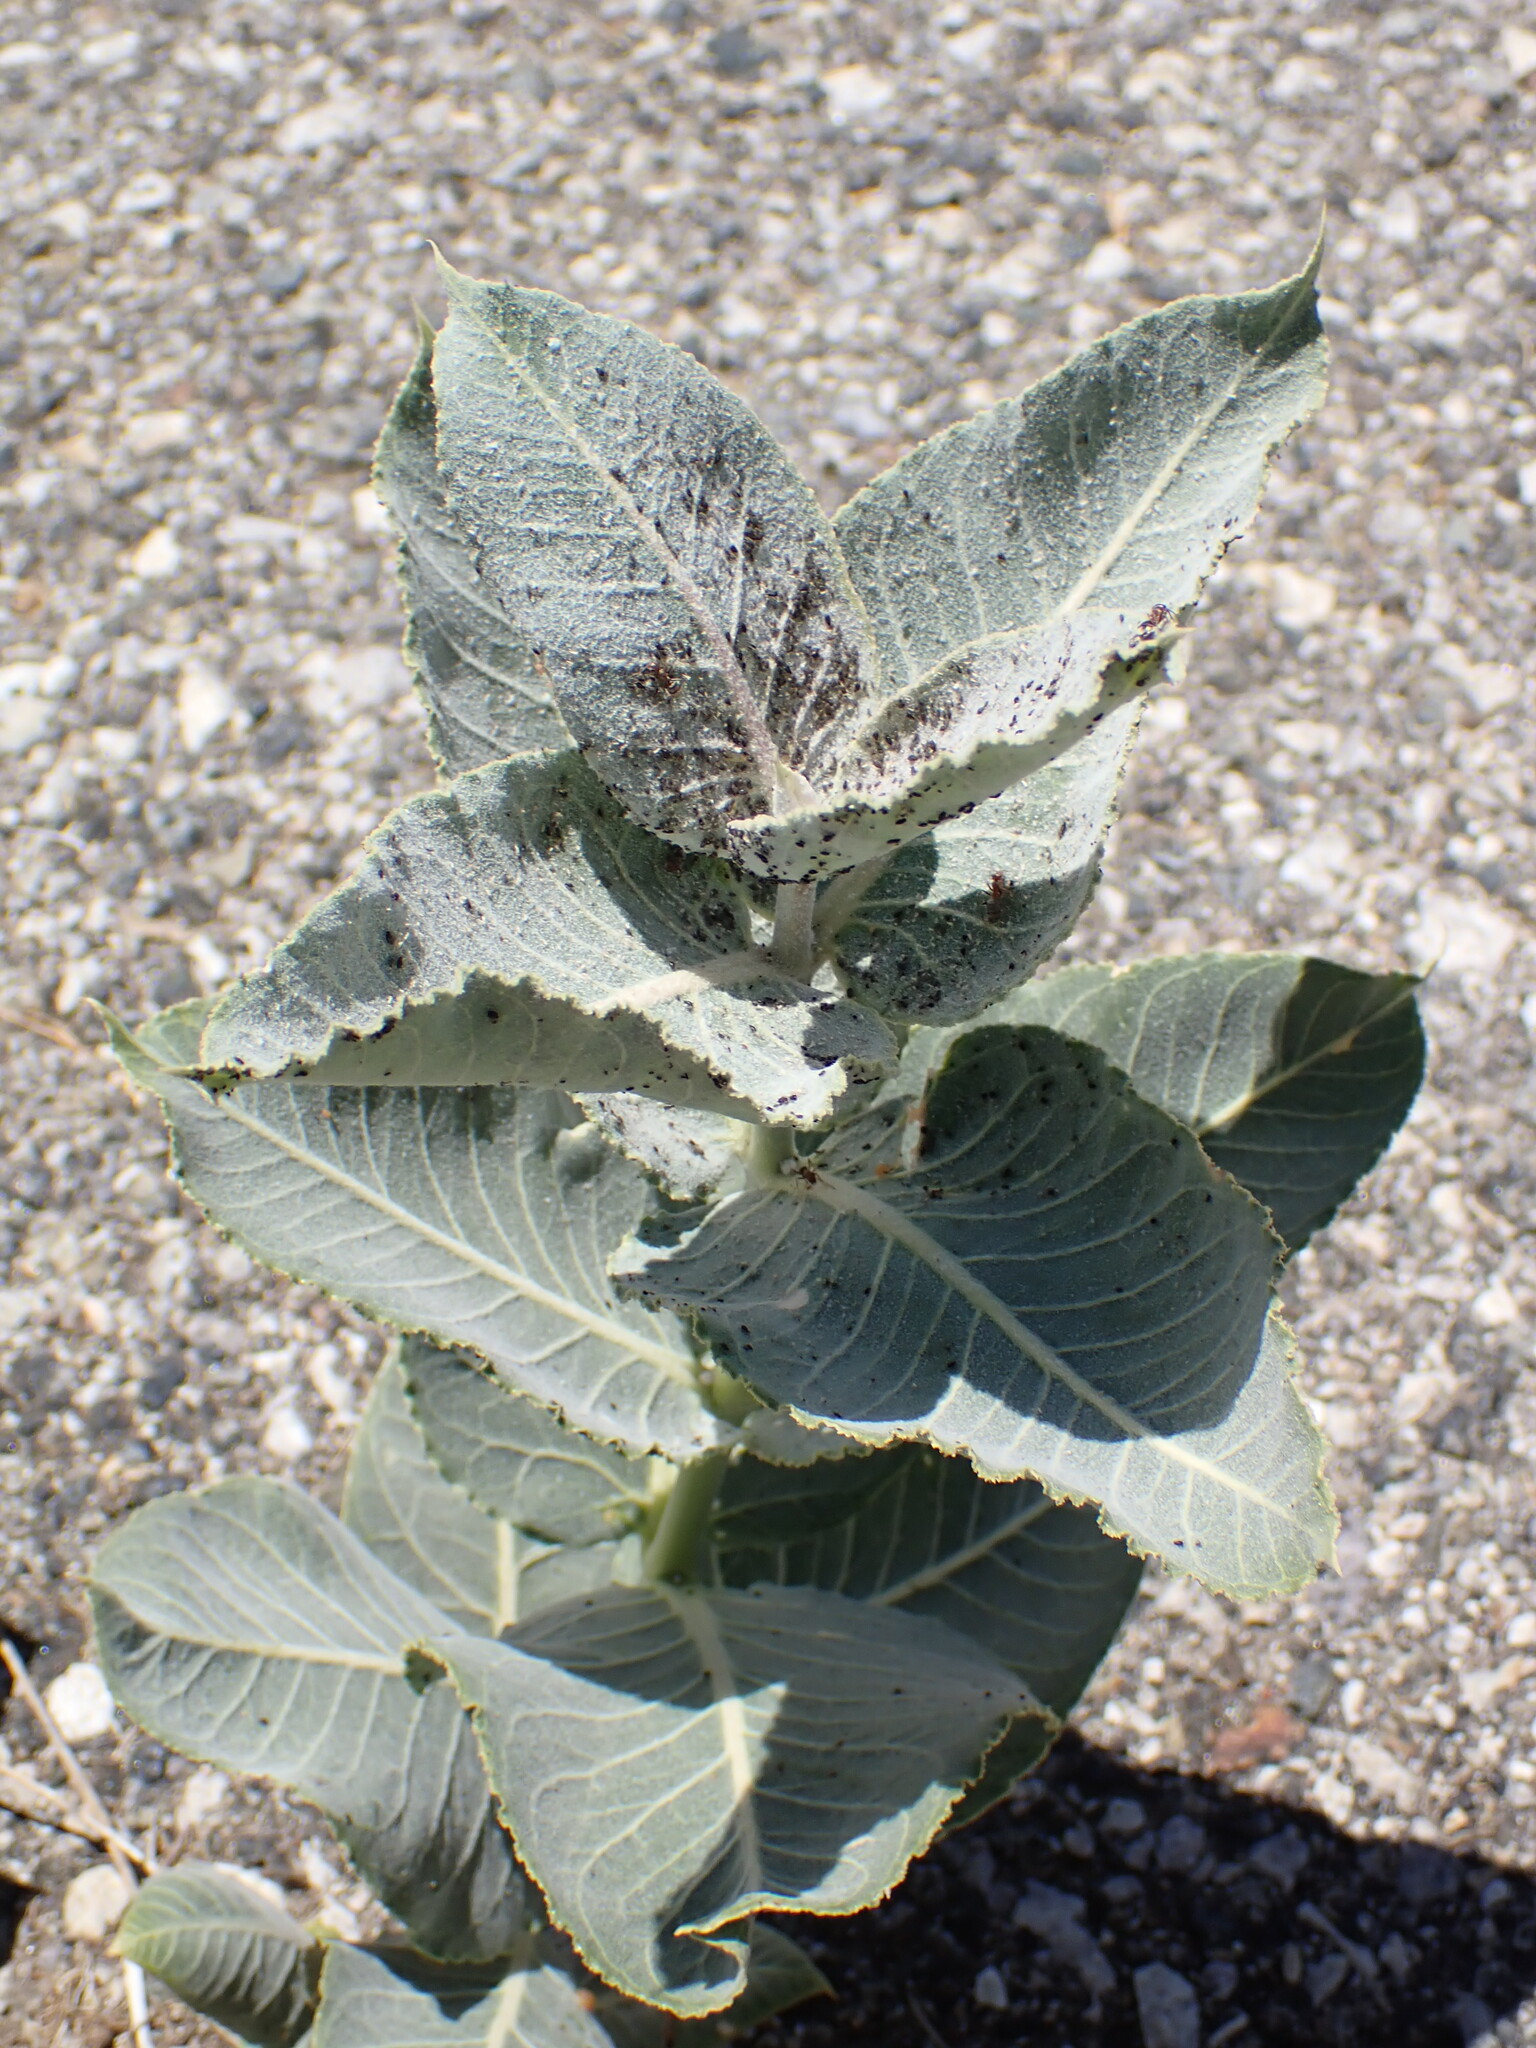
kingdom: Plantae
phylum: Tracheophyta
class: Magnoliopsida
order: Gentianales
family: Apocynaceae
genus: Asclepias
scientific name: Asclepias erosa
